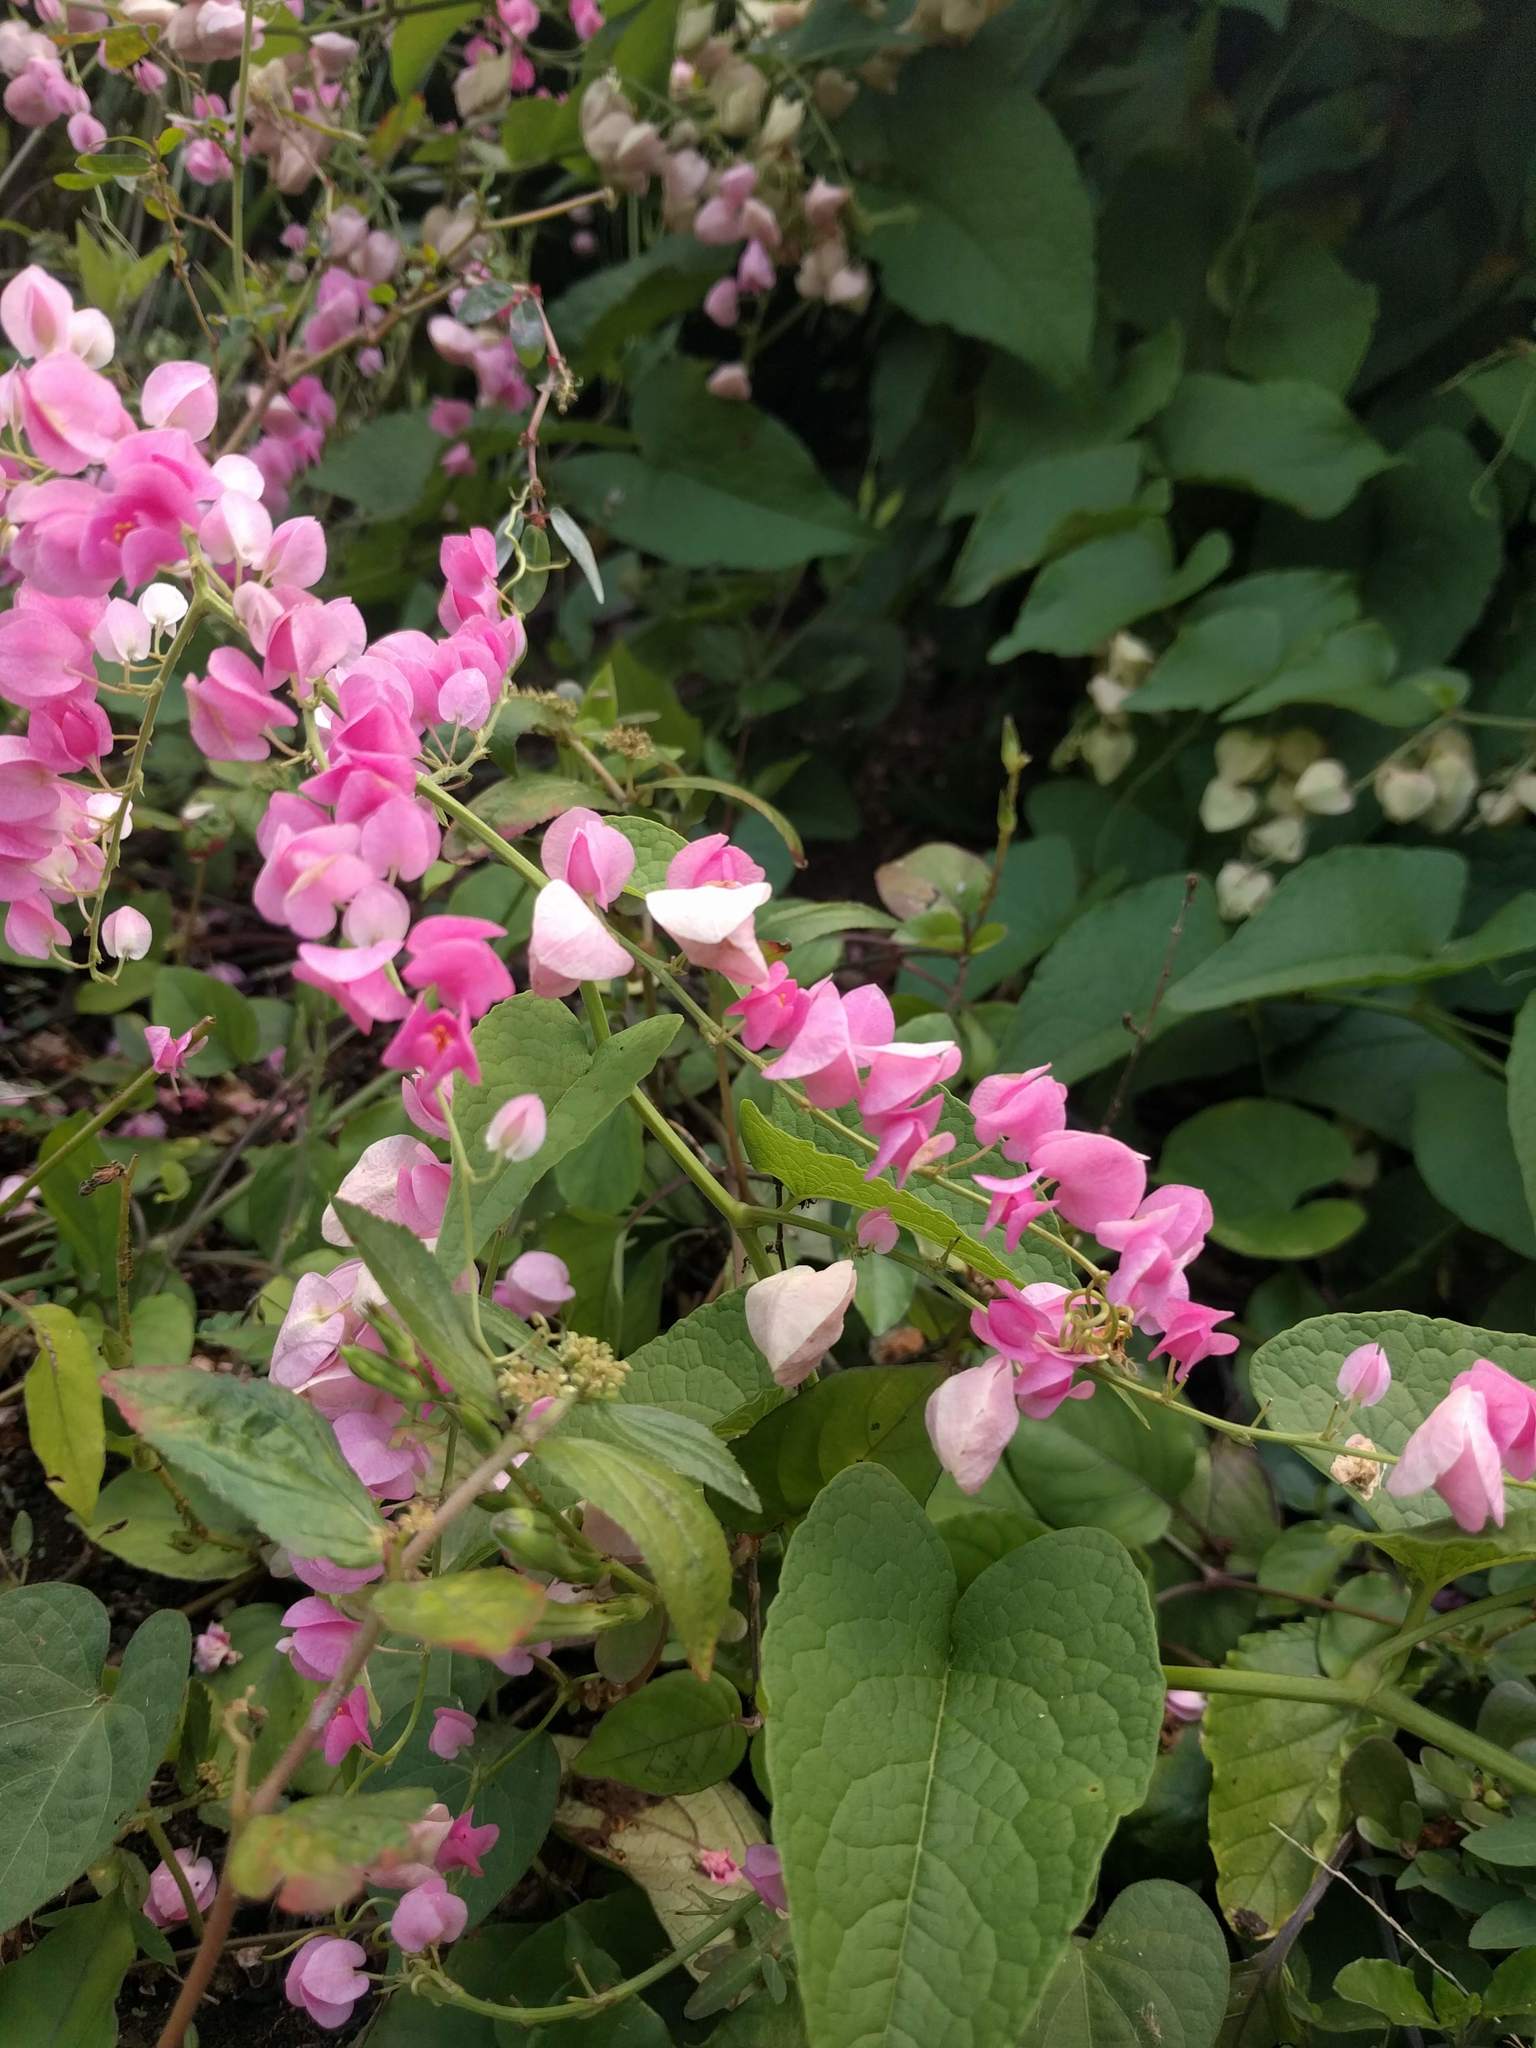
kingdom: Plantae
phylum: Tracheophyta
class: Magnoliopsida
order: Caryophyllales
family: Polygonaceae
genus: Antigonon
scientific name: Antigonon leptopus
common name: Coral vine
